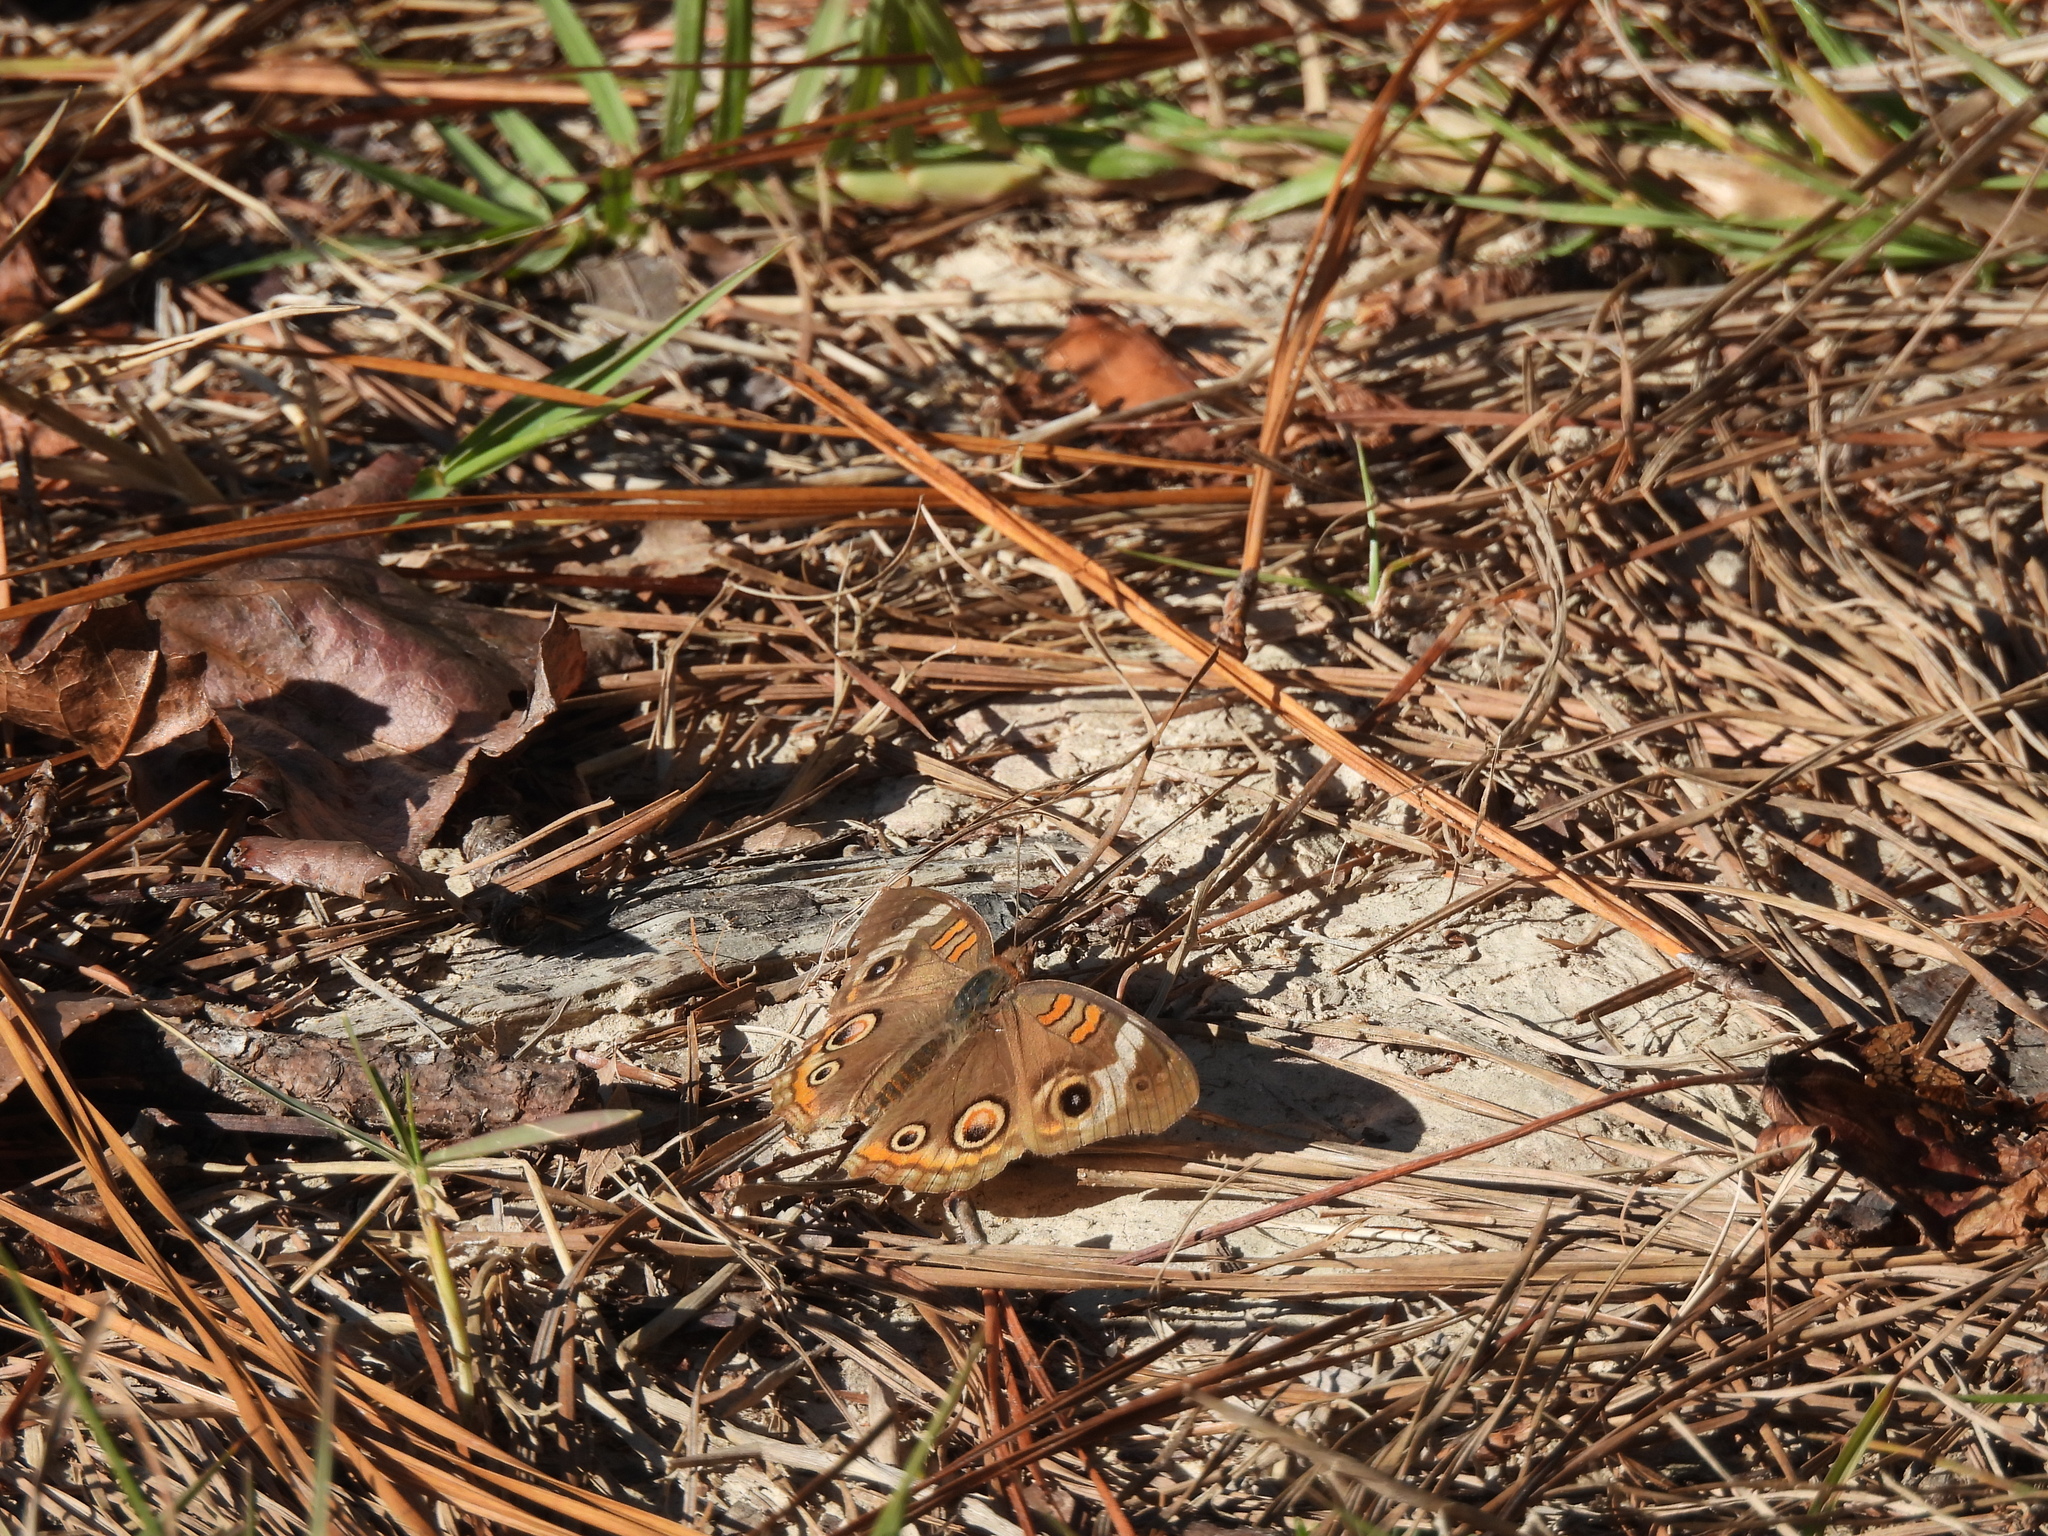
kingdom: Animalia
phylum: Arthropoda
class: Insecta
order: Lepidoptera
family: Nymphalidae
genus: Junonia
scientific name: Junonia coenia
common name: Common buckeye
